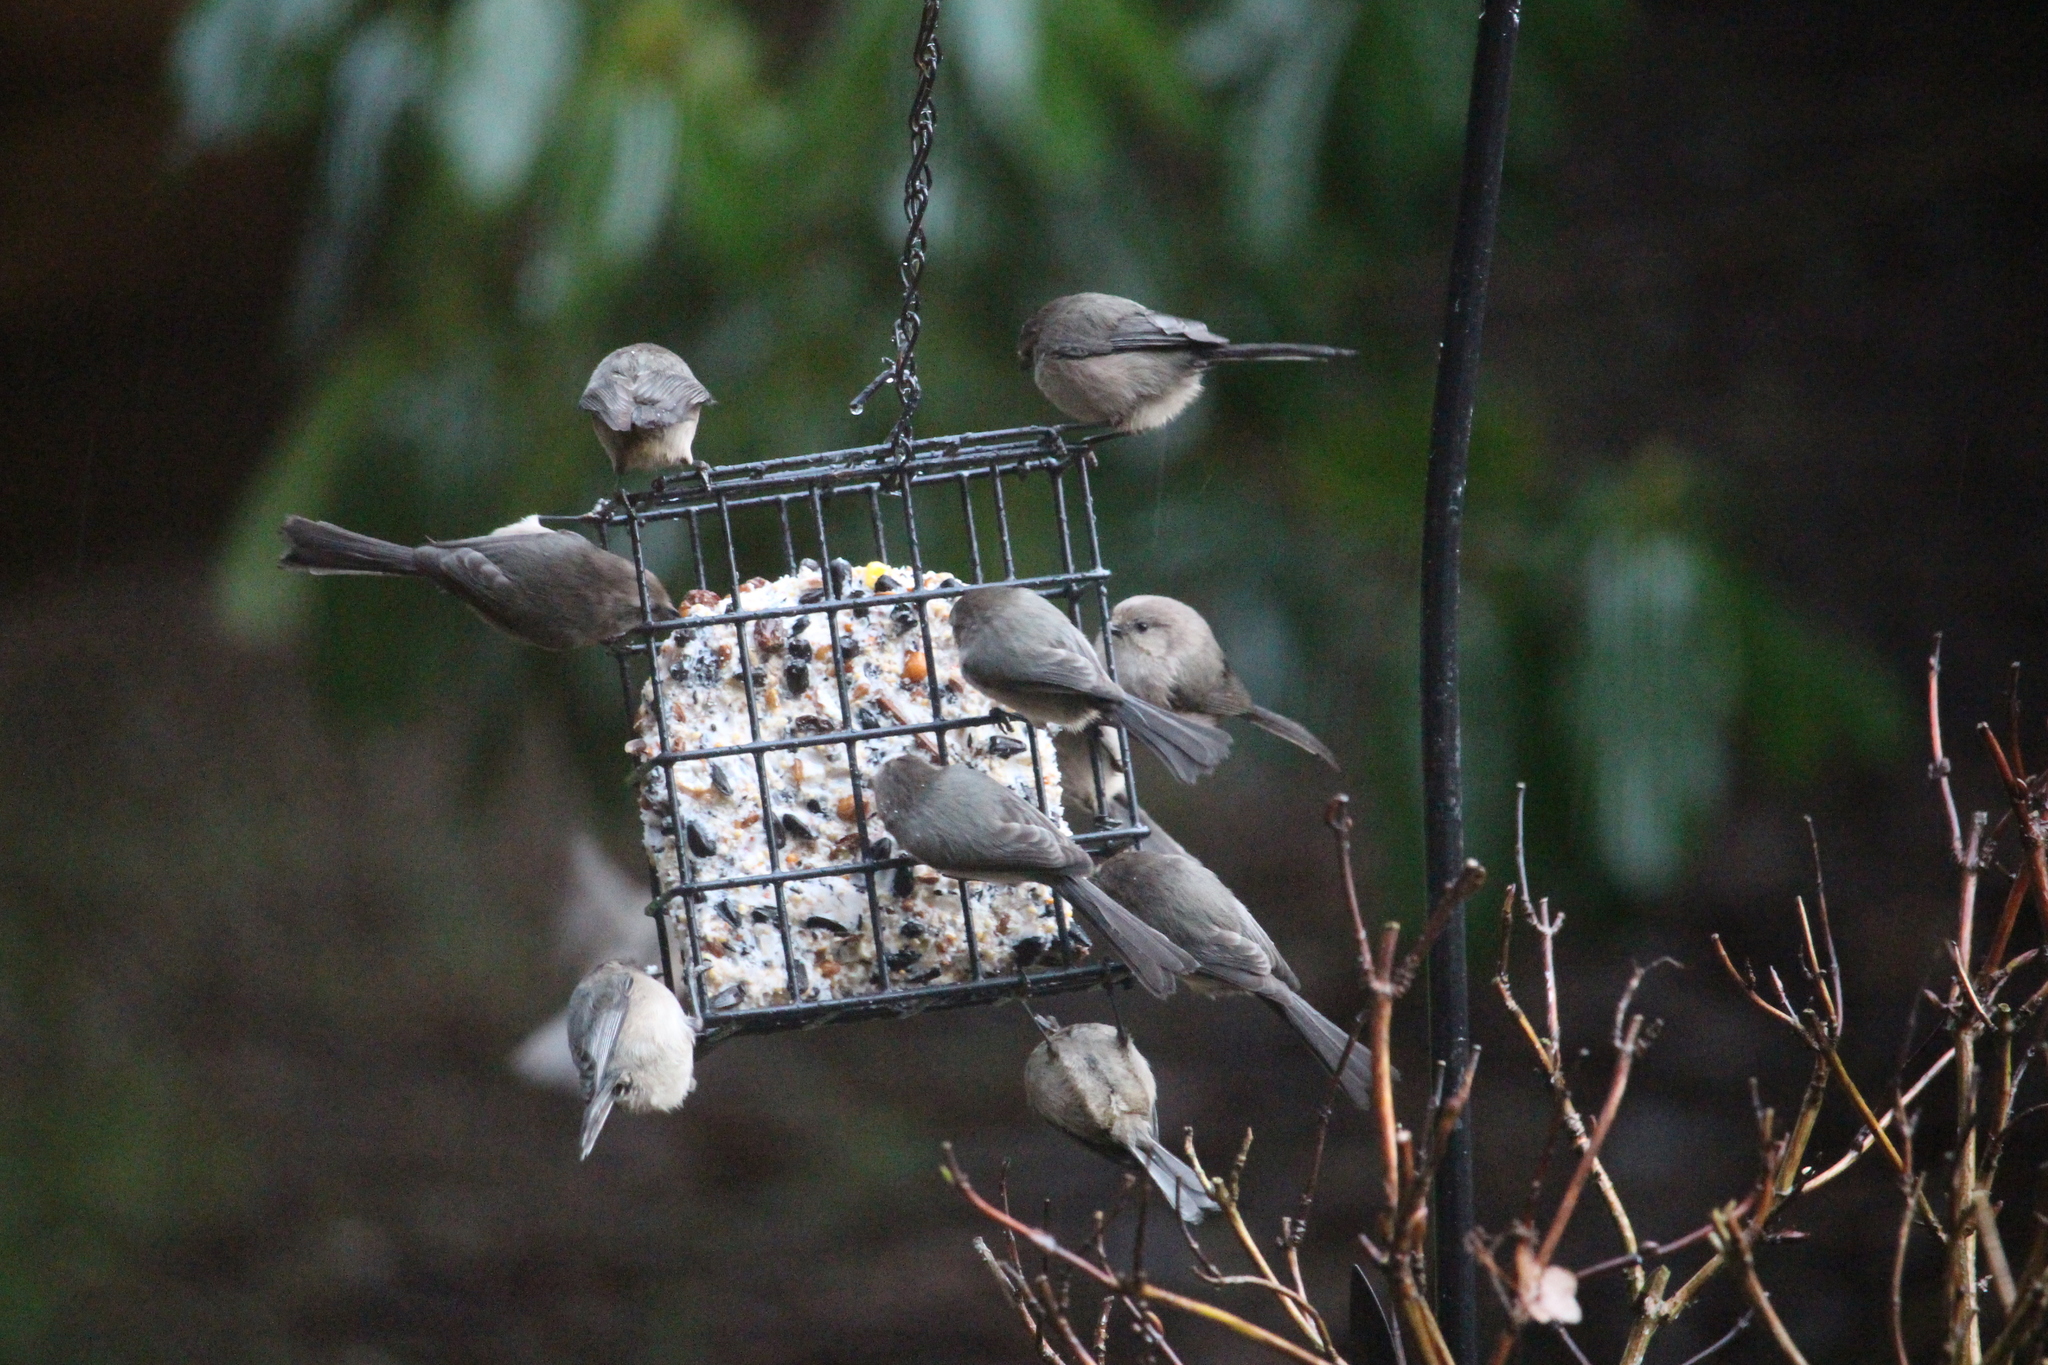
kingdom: Animalia
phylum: Chordata
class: Aves
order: Passeriformes
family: Aegithalidae
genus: Psaltriparus
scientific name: Psaltriparus minimus
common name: American bushtit
